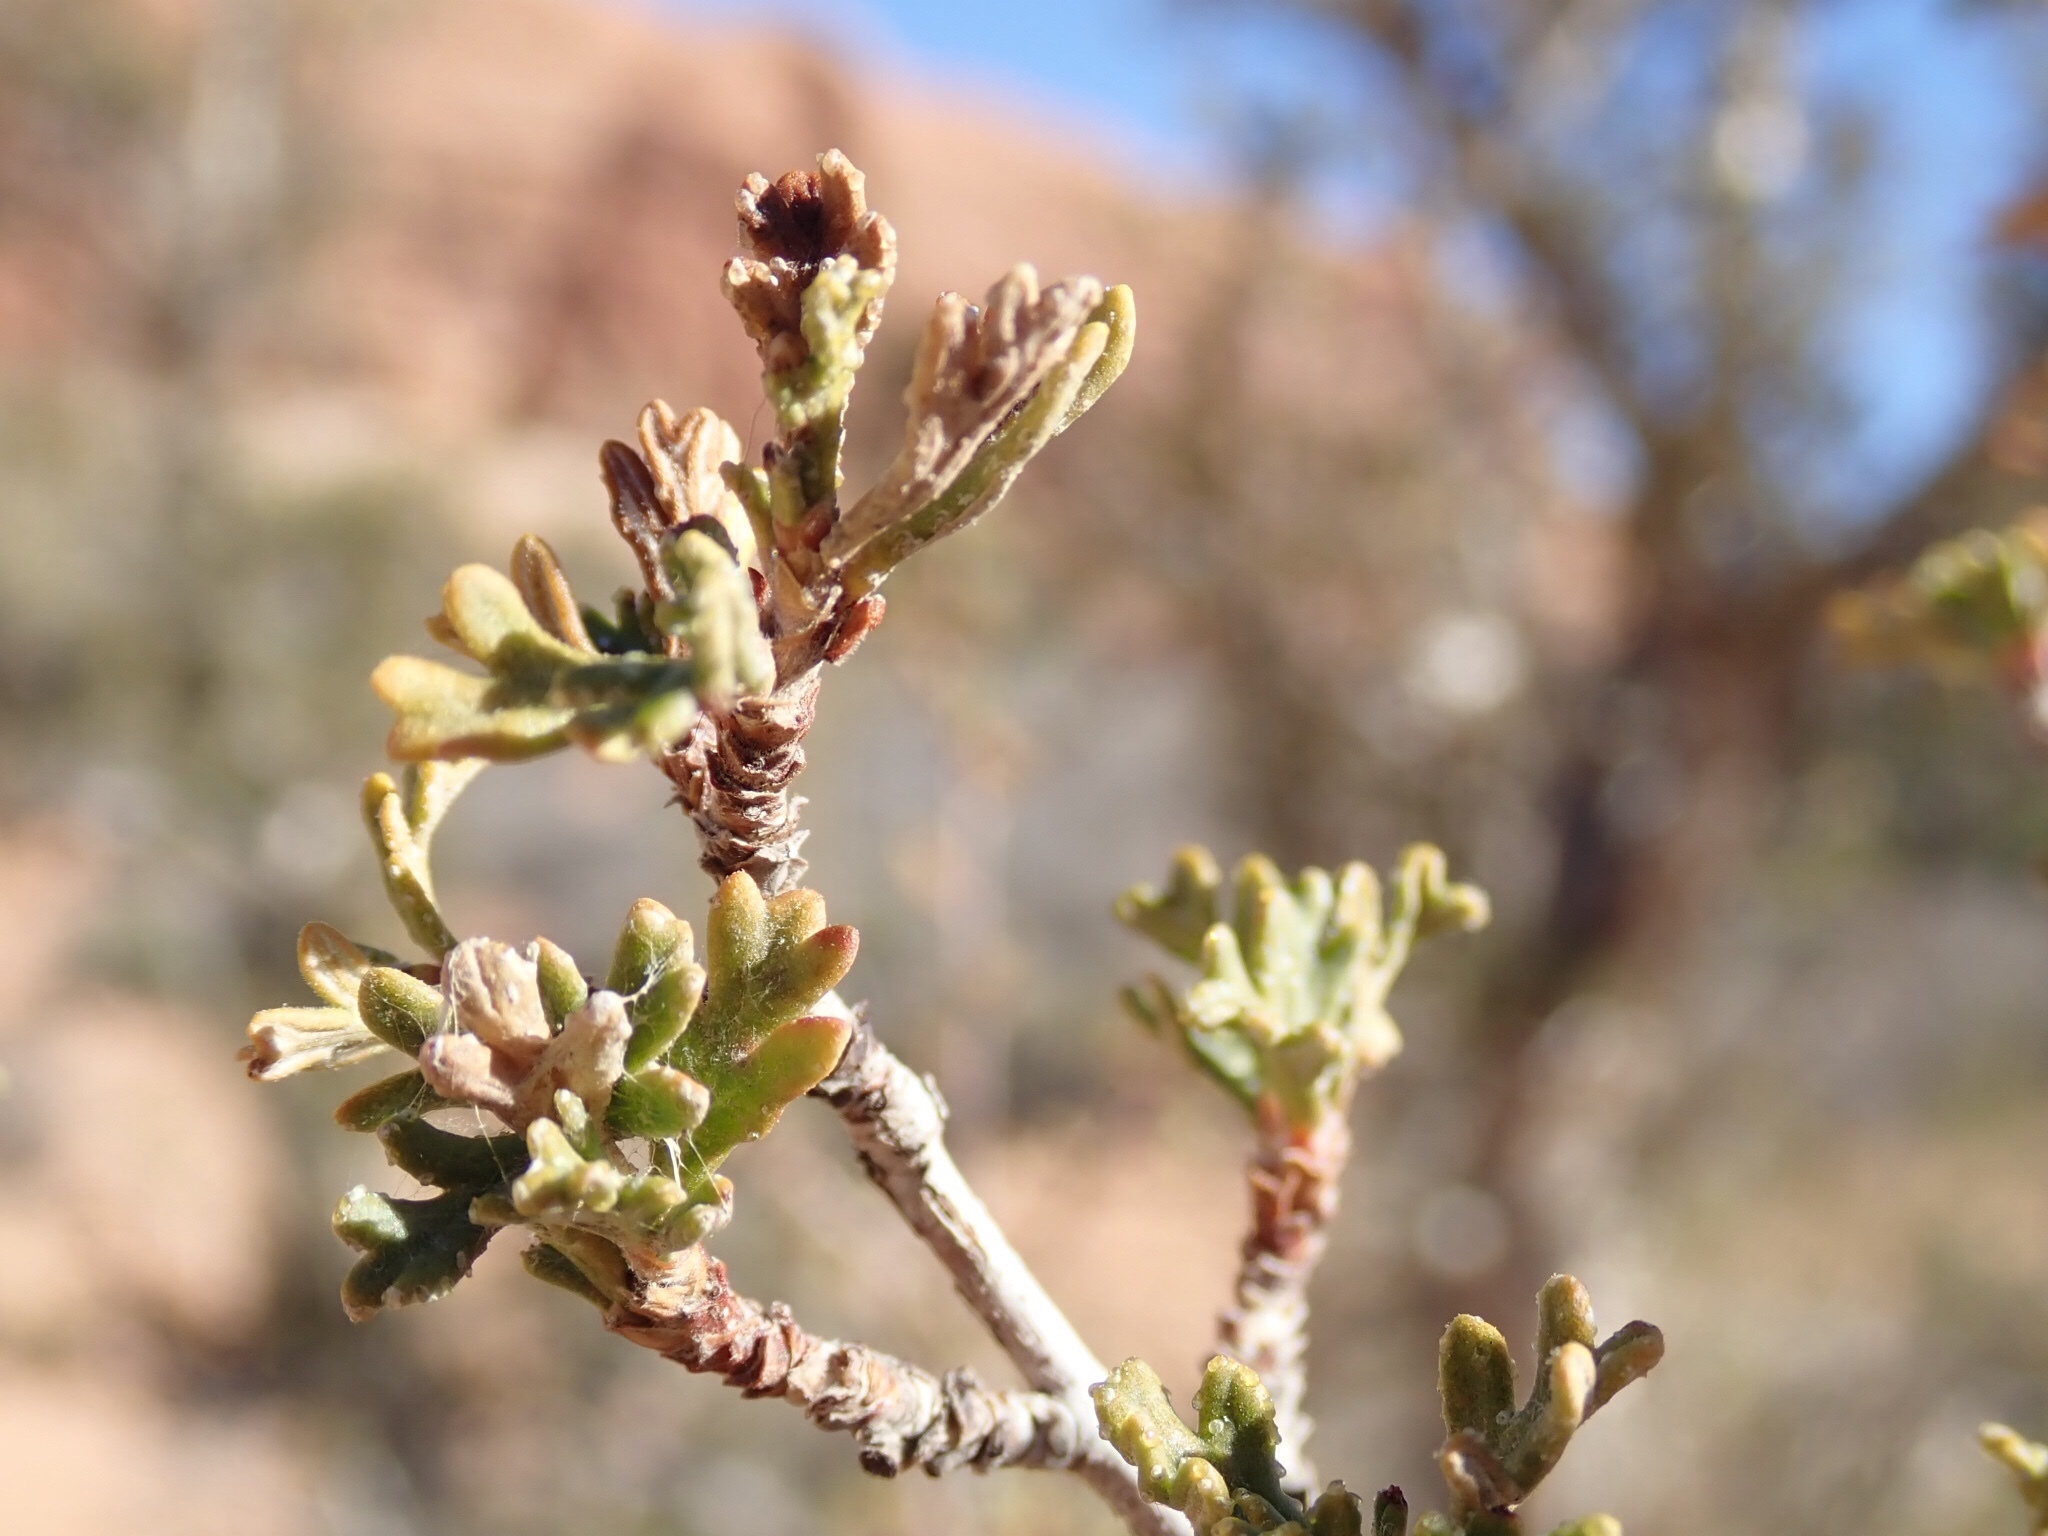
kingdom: Plantae
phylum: Tracheophyta
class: Magnoliopsida
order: Rosales
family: Rosaceae
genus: Purshia
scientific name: Purshia stansburiana
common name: Stansbury's cliffrose
